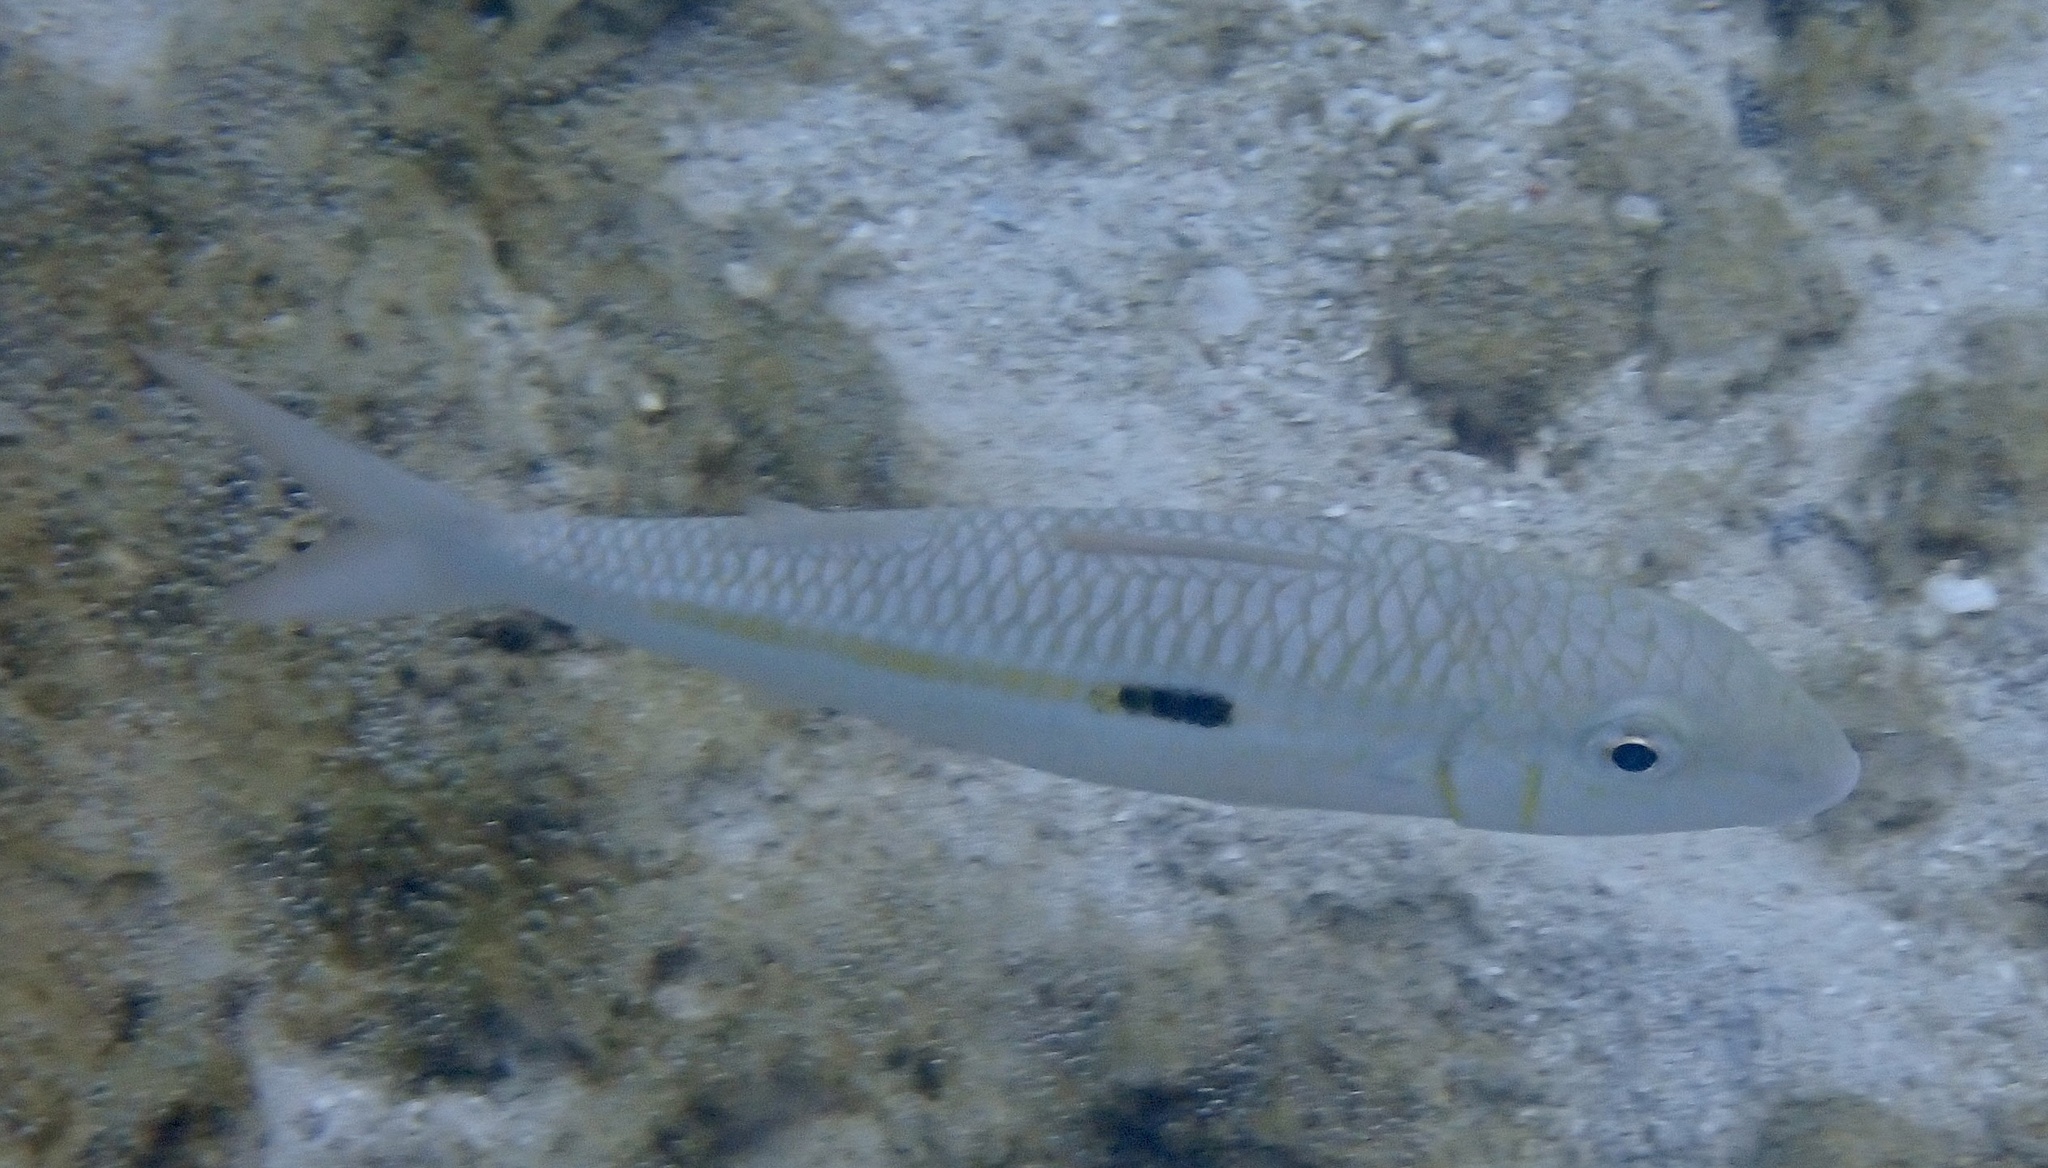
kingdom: Animalia
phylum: Chordata
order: Perciformes
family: Mullidae
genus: Mulloidichthys
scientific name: Mulloidichthys flavolineatus
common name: Yellowstripe goatfish
